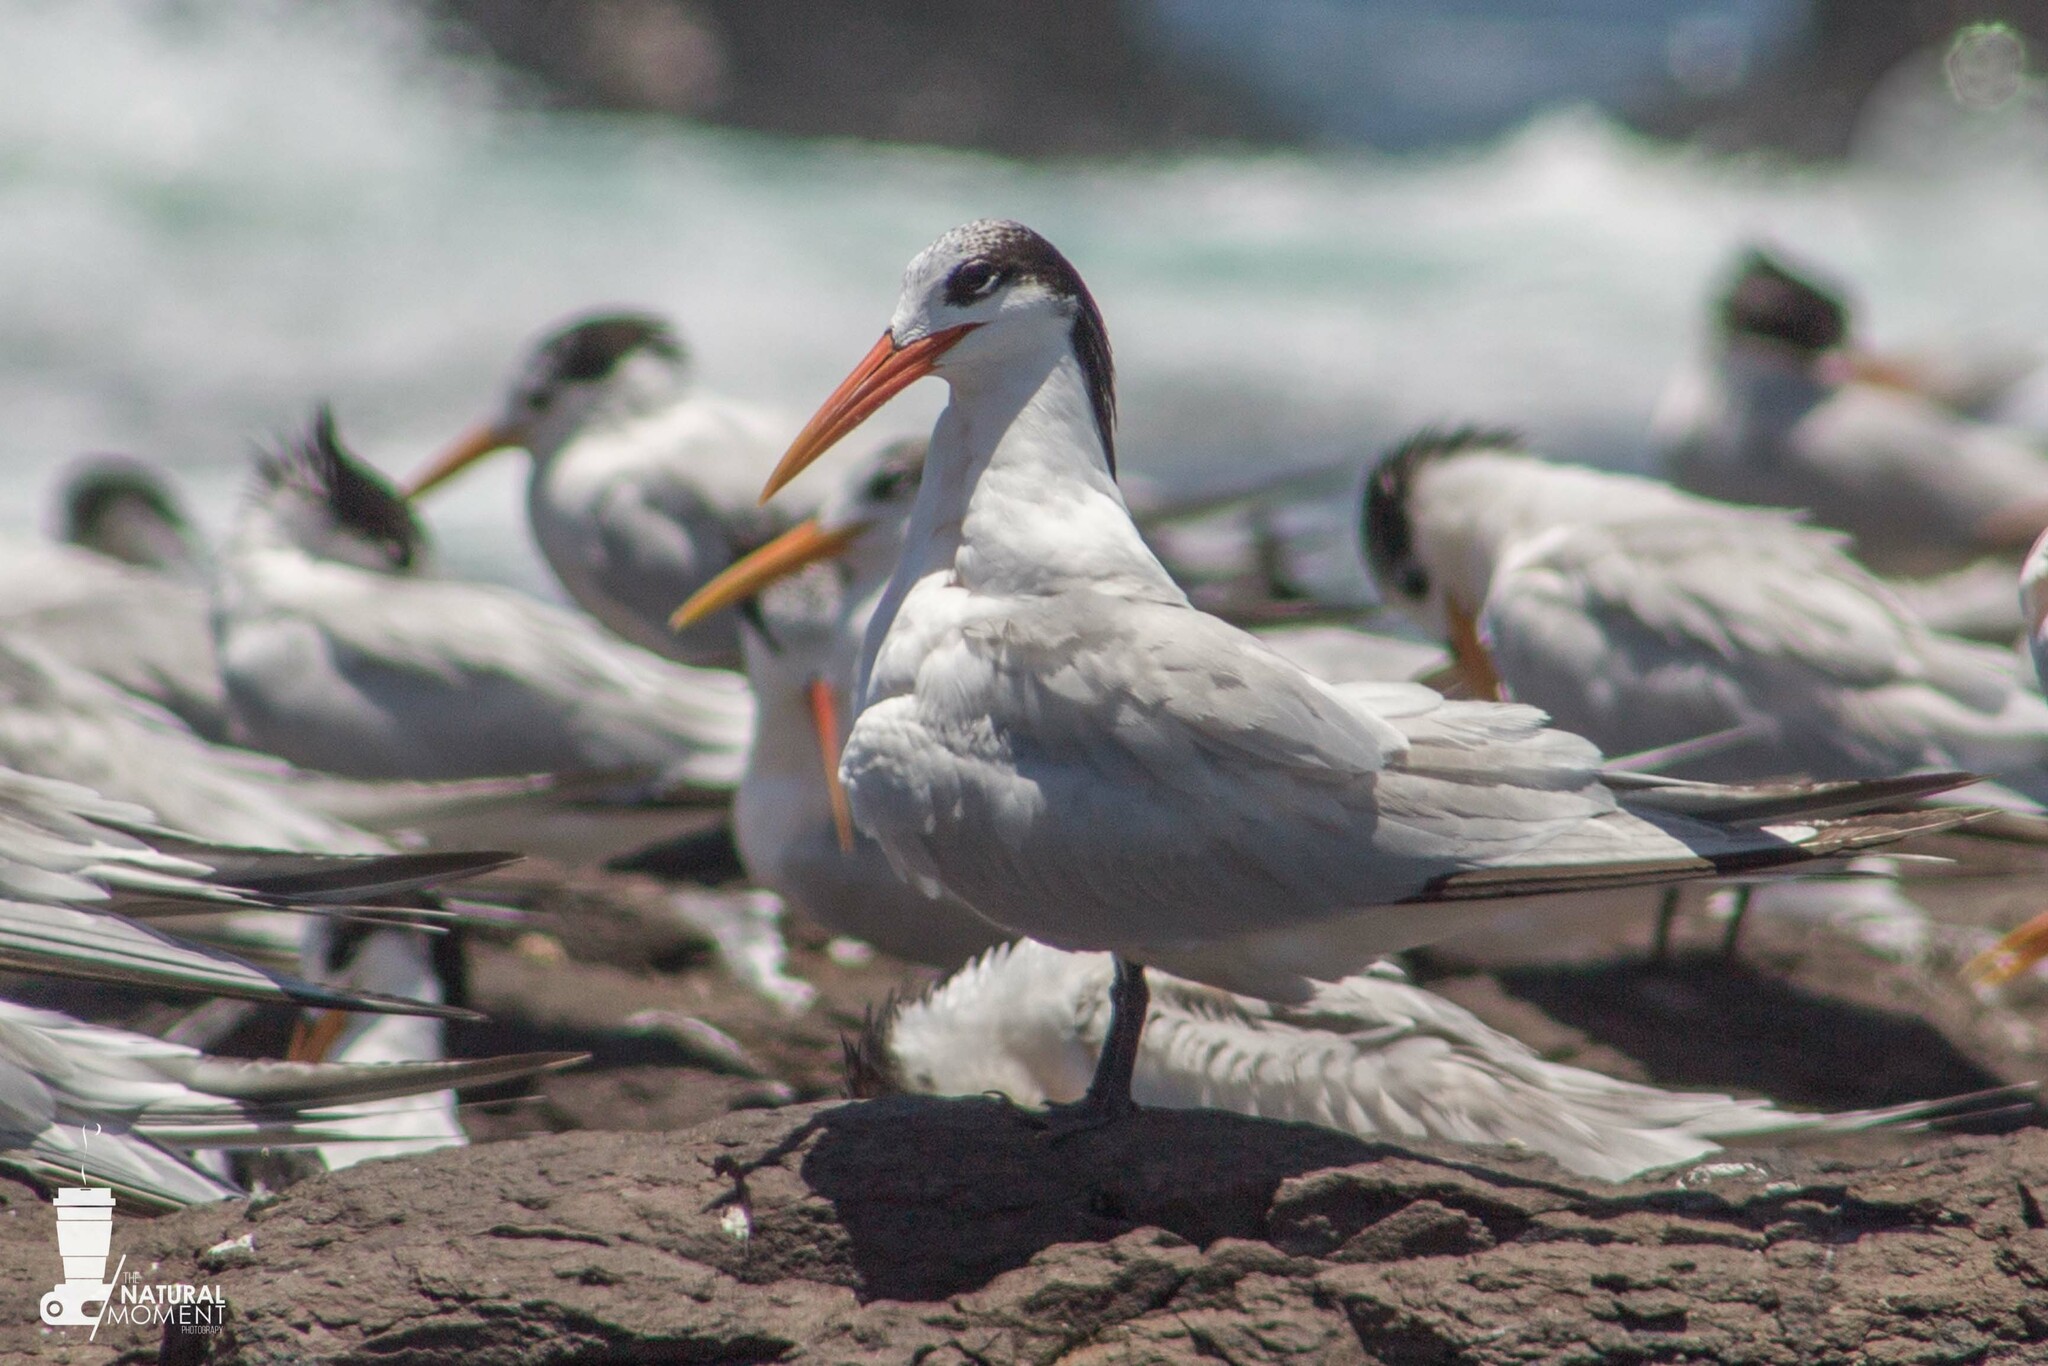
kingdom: Animalia
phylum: Chordata
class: Aves
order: Charadriiformes
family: Laridae
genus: Thalasseus
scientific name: Thalasseus elegans
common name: Elegant tern
